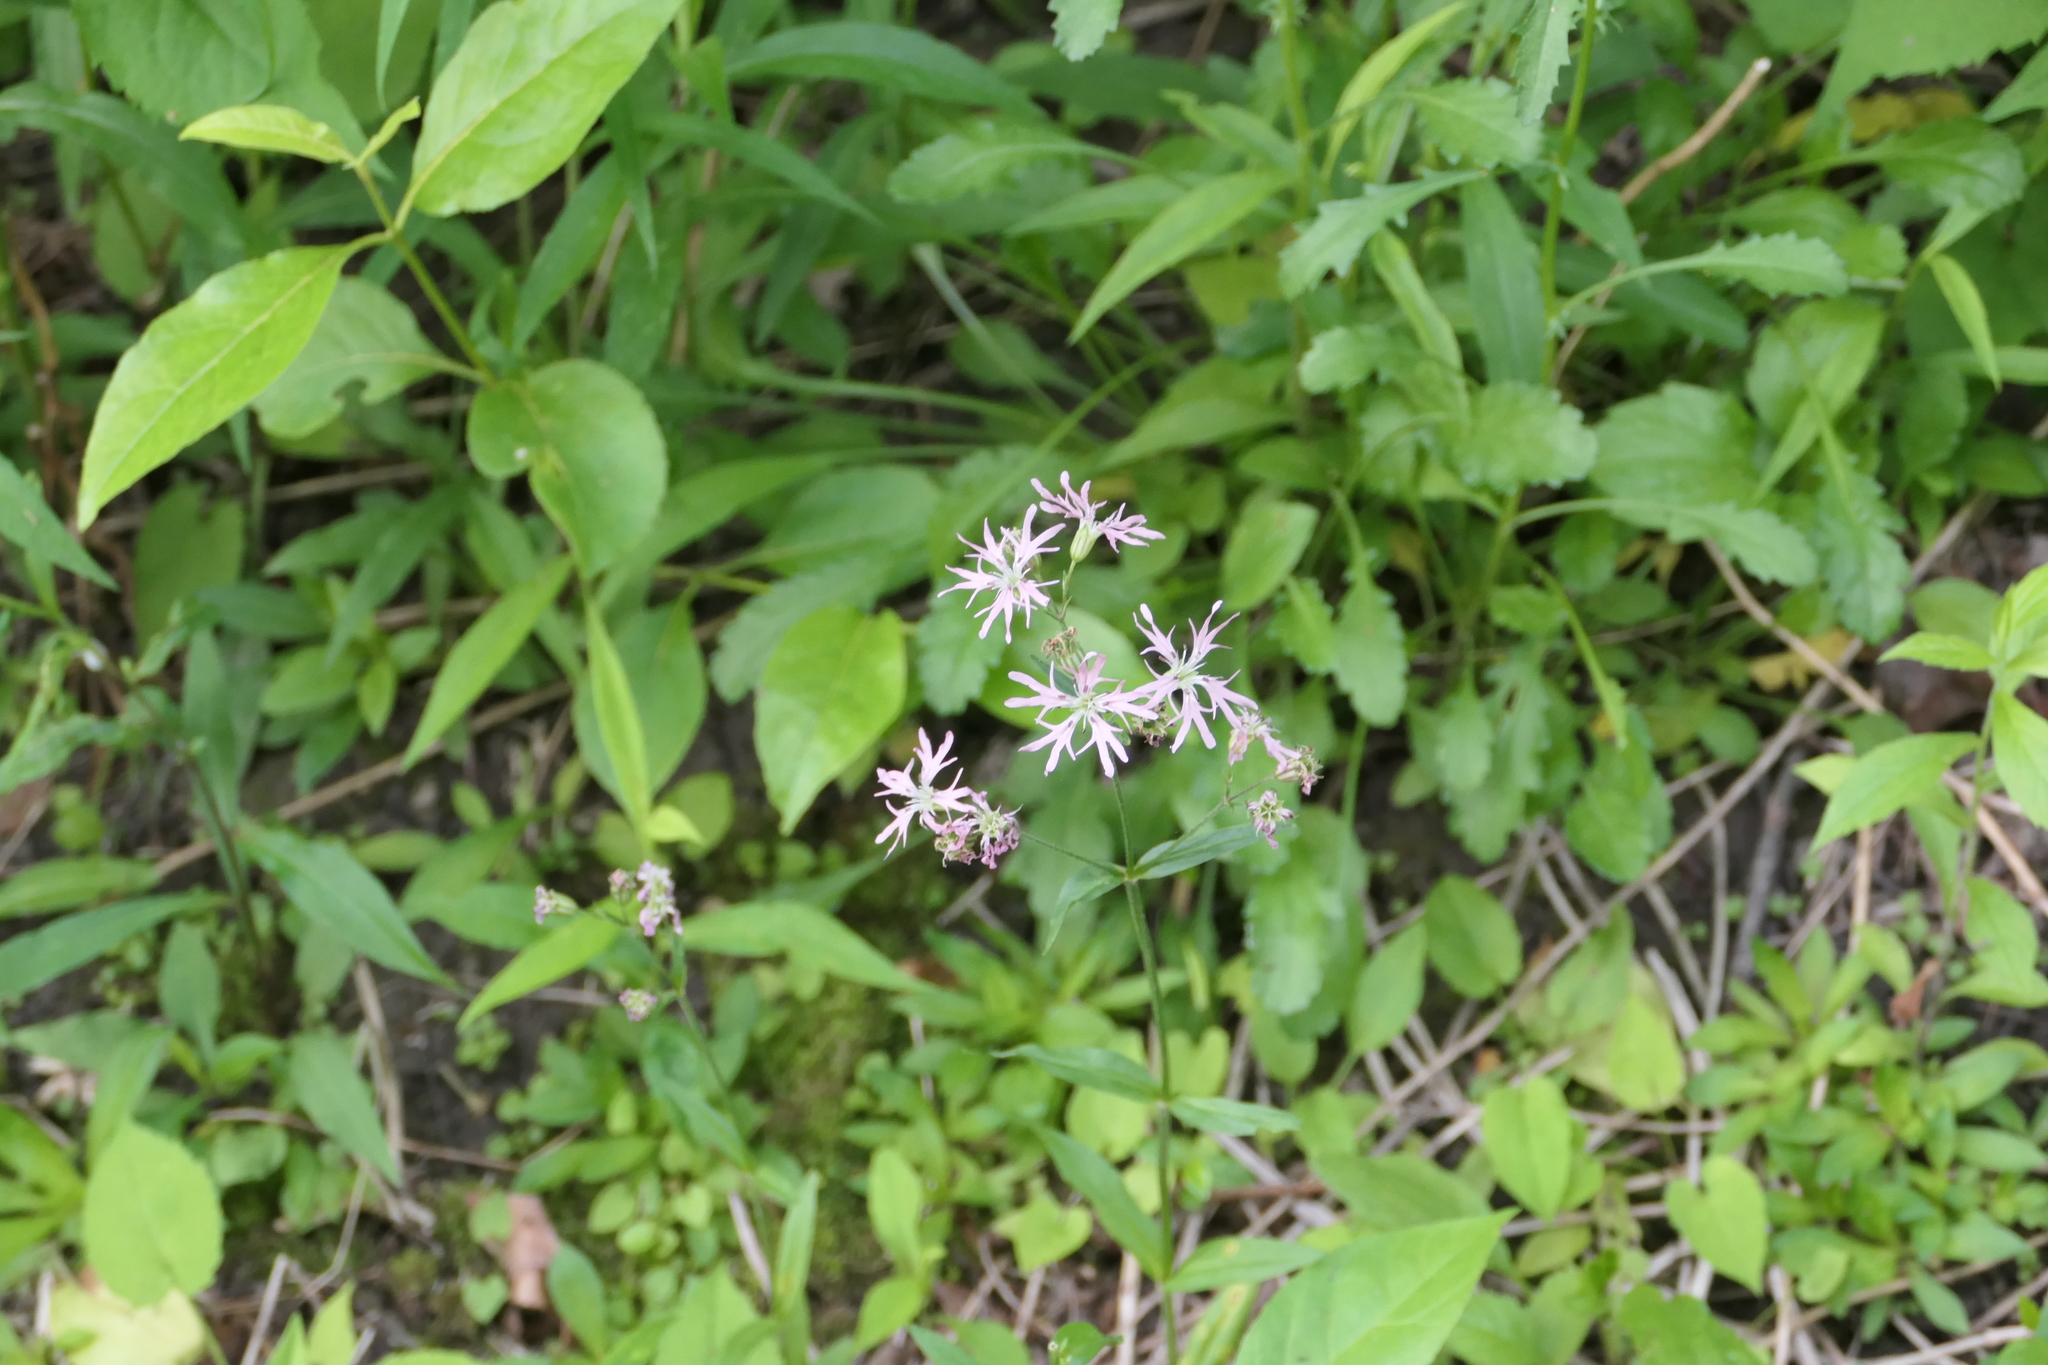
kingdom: Plantae
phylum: Tracheophyta
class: Magnoliopsida
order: Caryophyllales
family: Caryophyllaceae
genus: Silene
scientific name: Silene flos-cuculi
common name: Ragged-robin
